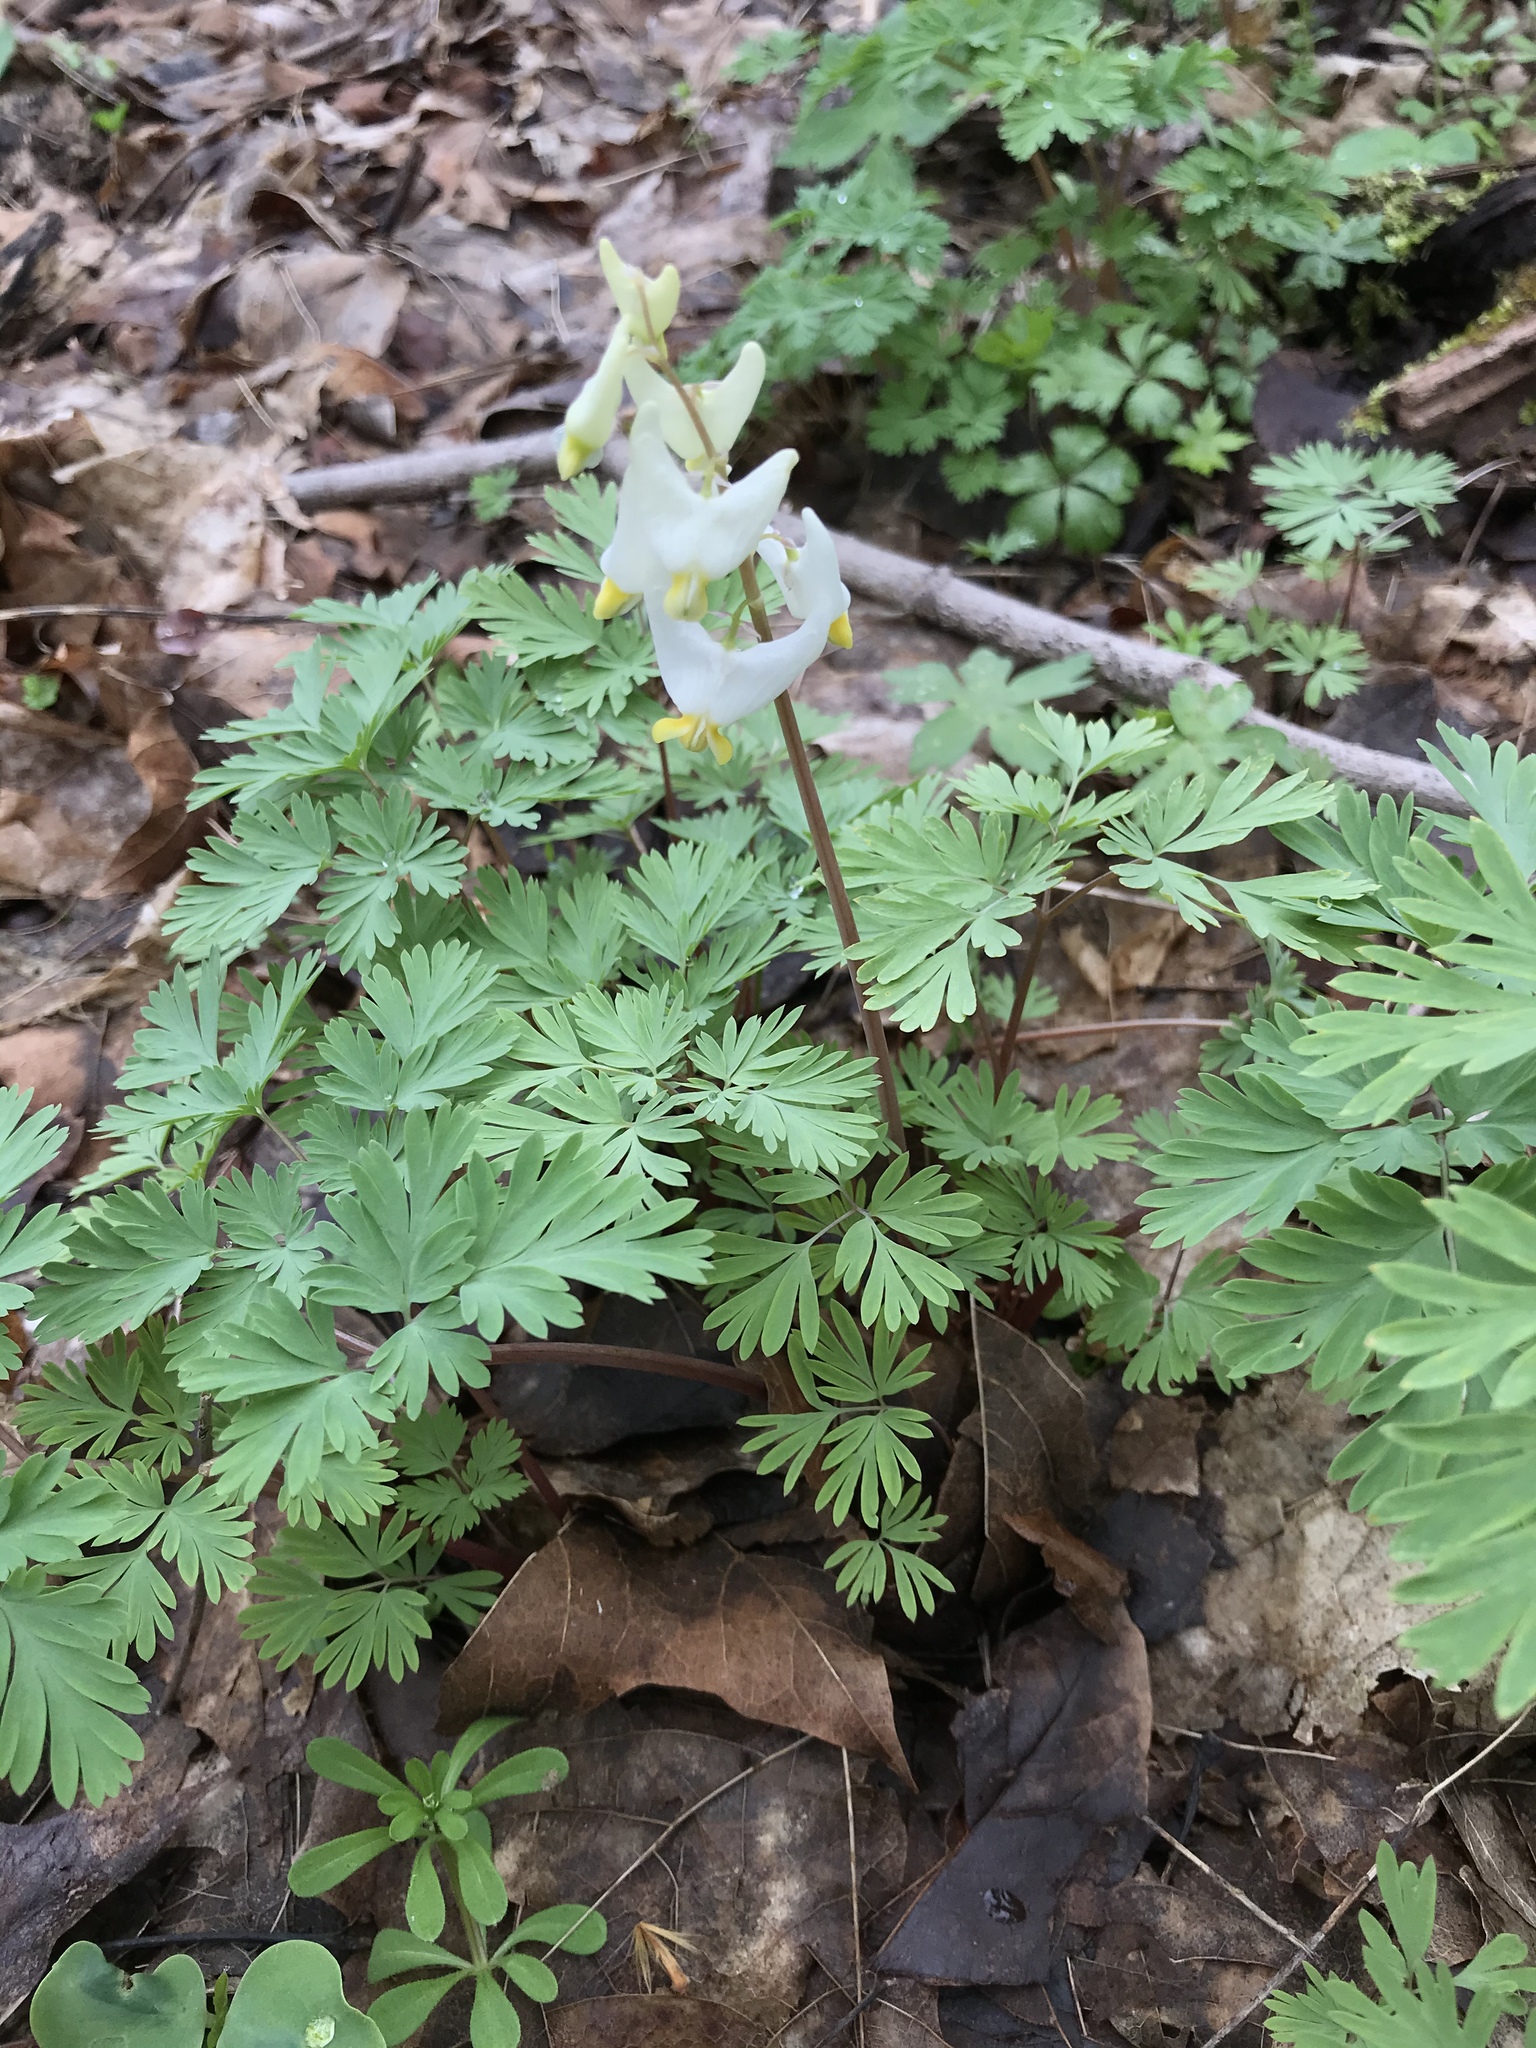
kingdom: Plantae
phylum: Tracheophyta
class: Magnoliopsida
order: Ranunculales
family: Papaveraceae
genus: Dicentra
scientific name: Dicentra cucullaria
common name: Dutchman's breeches
